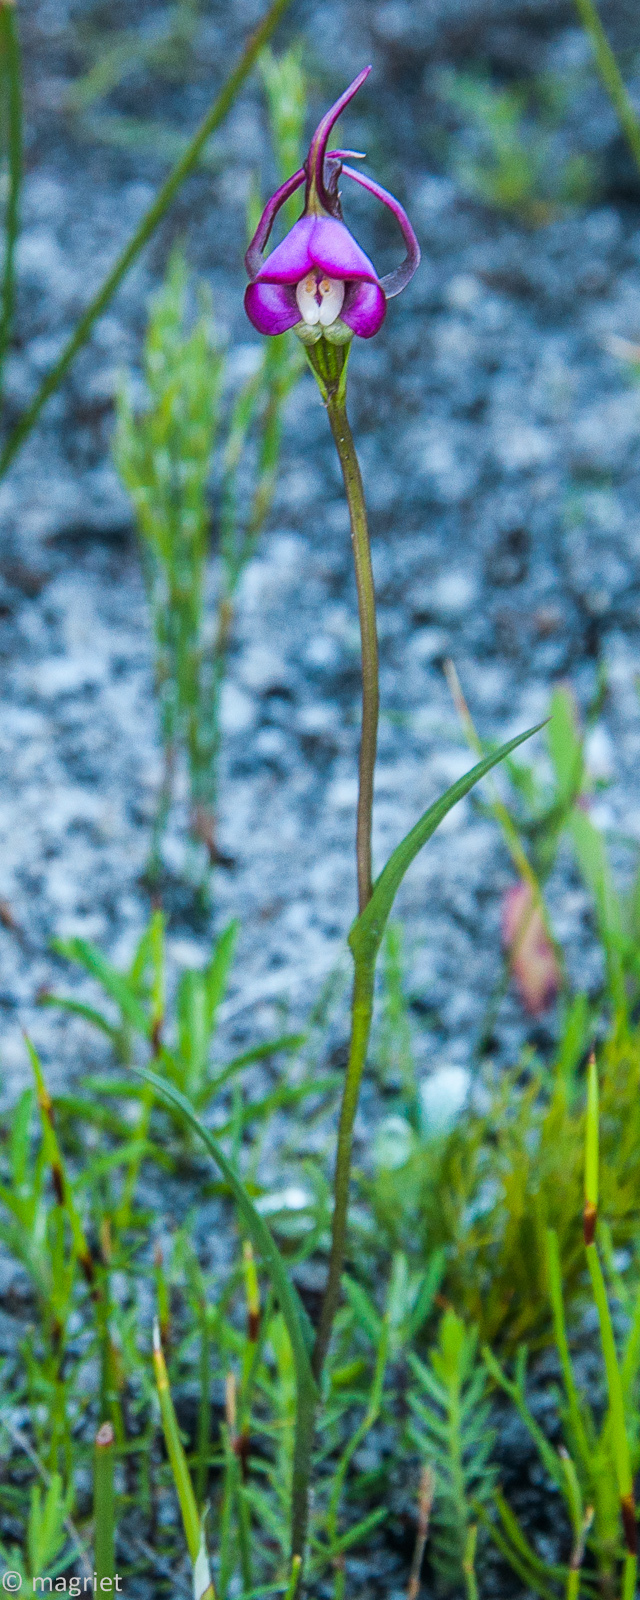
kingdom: Plantae
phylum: Tracheophyta
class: Liliopsida
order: Asparagales
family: Orchidaceae
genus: Disperis
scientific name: Disperis capensis
